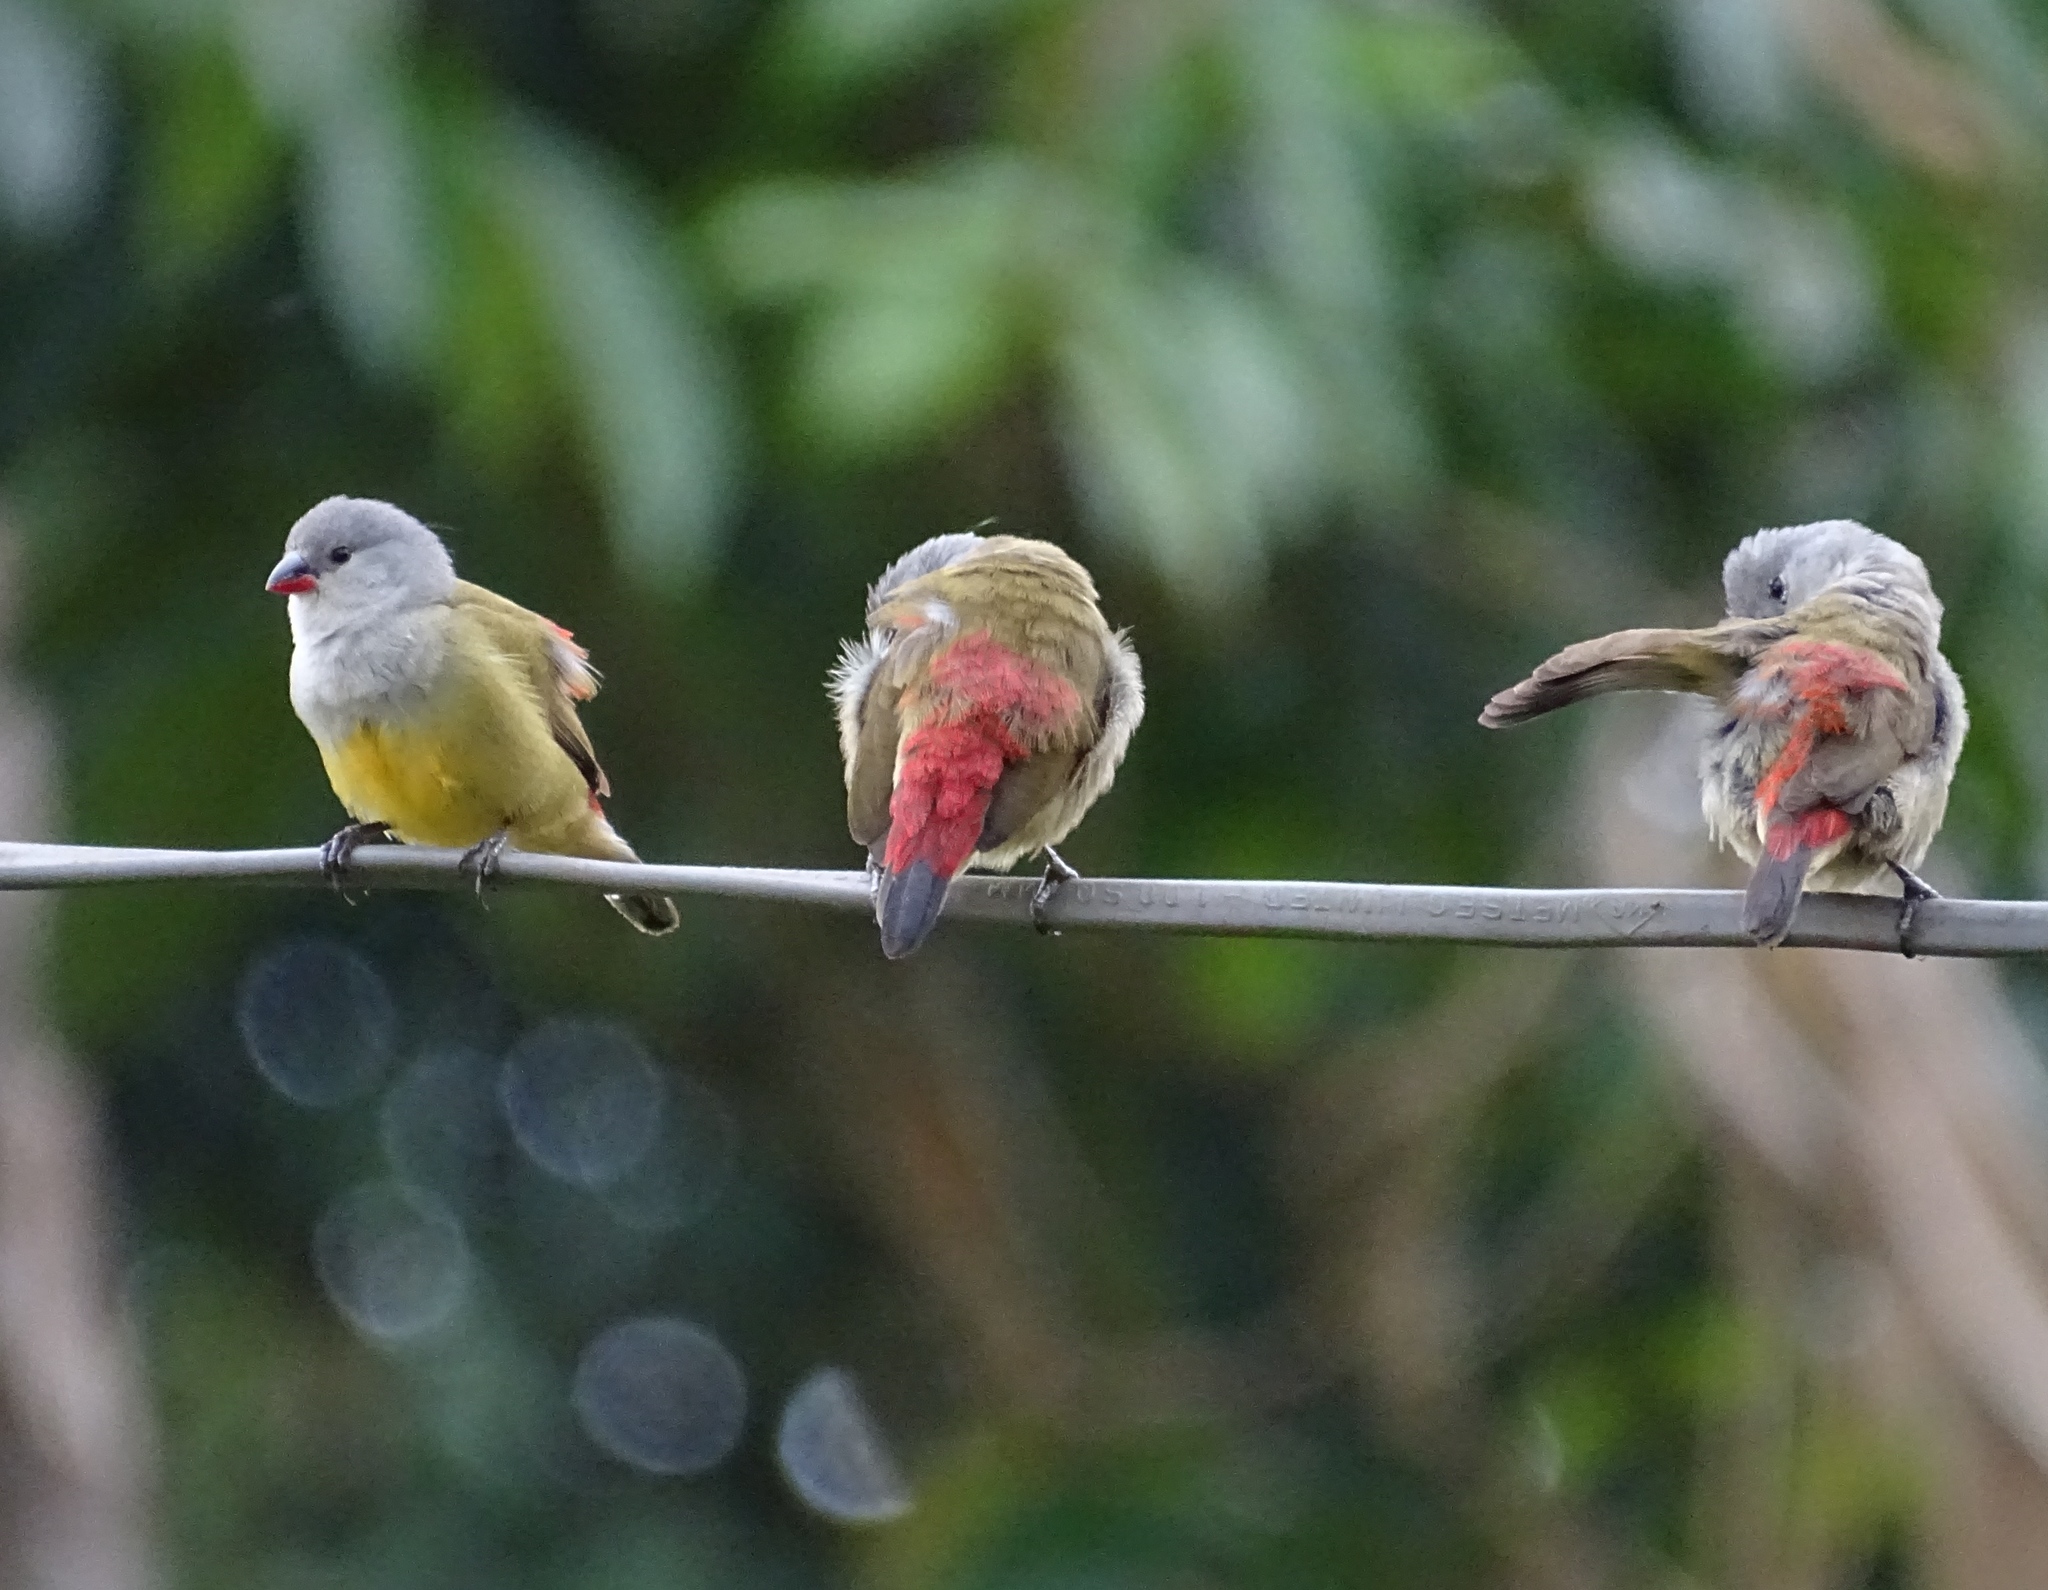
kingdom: Animalia
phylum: Chordata
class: Aves
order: Passeriformes
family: Estrildidae
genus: Coccopygia
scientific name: Coccopygia quartinia
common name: Yellow-bellied waxbill
